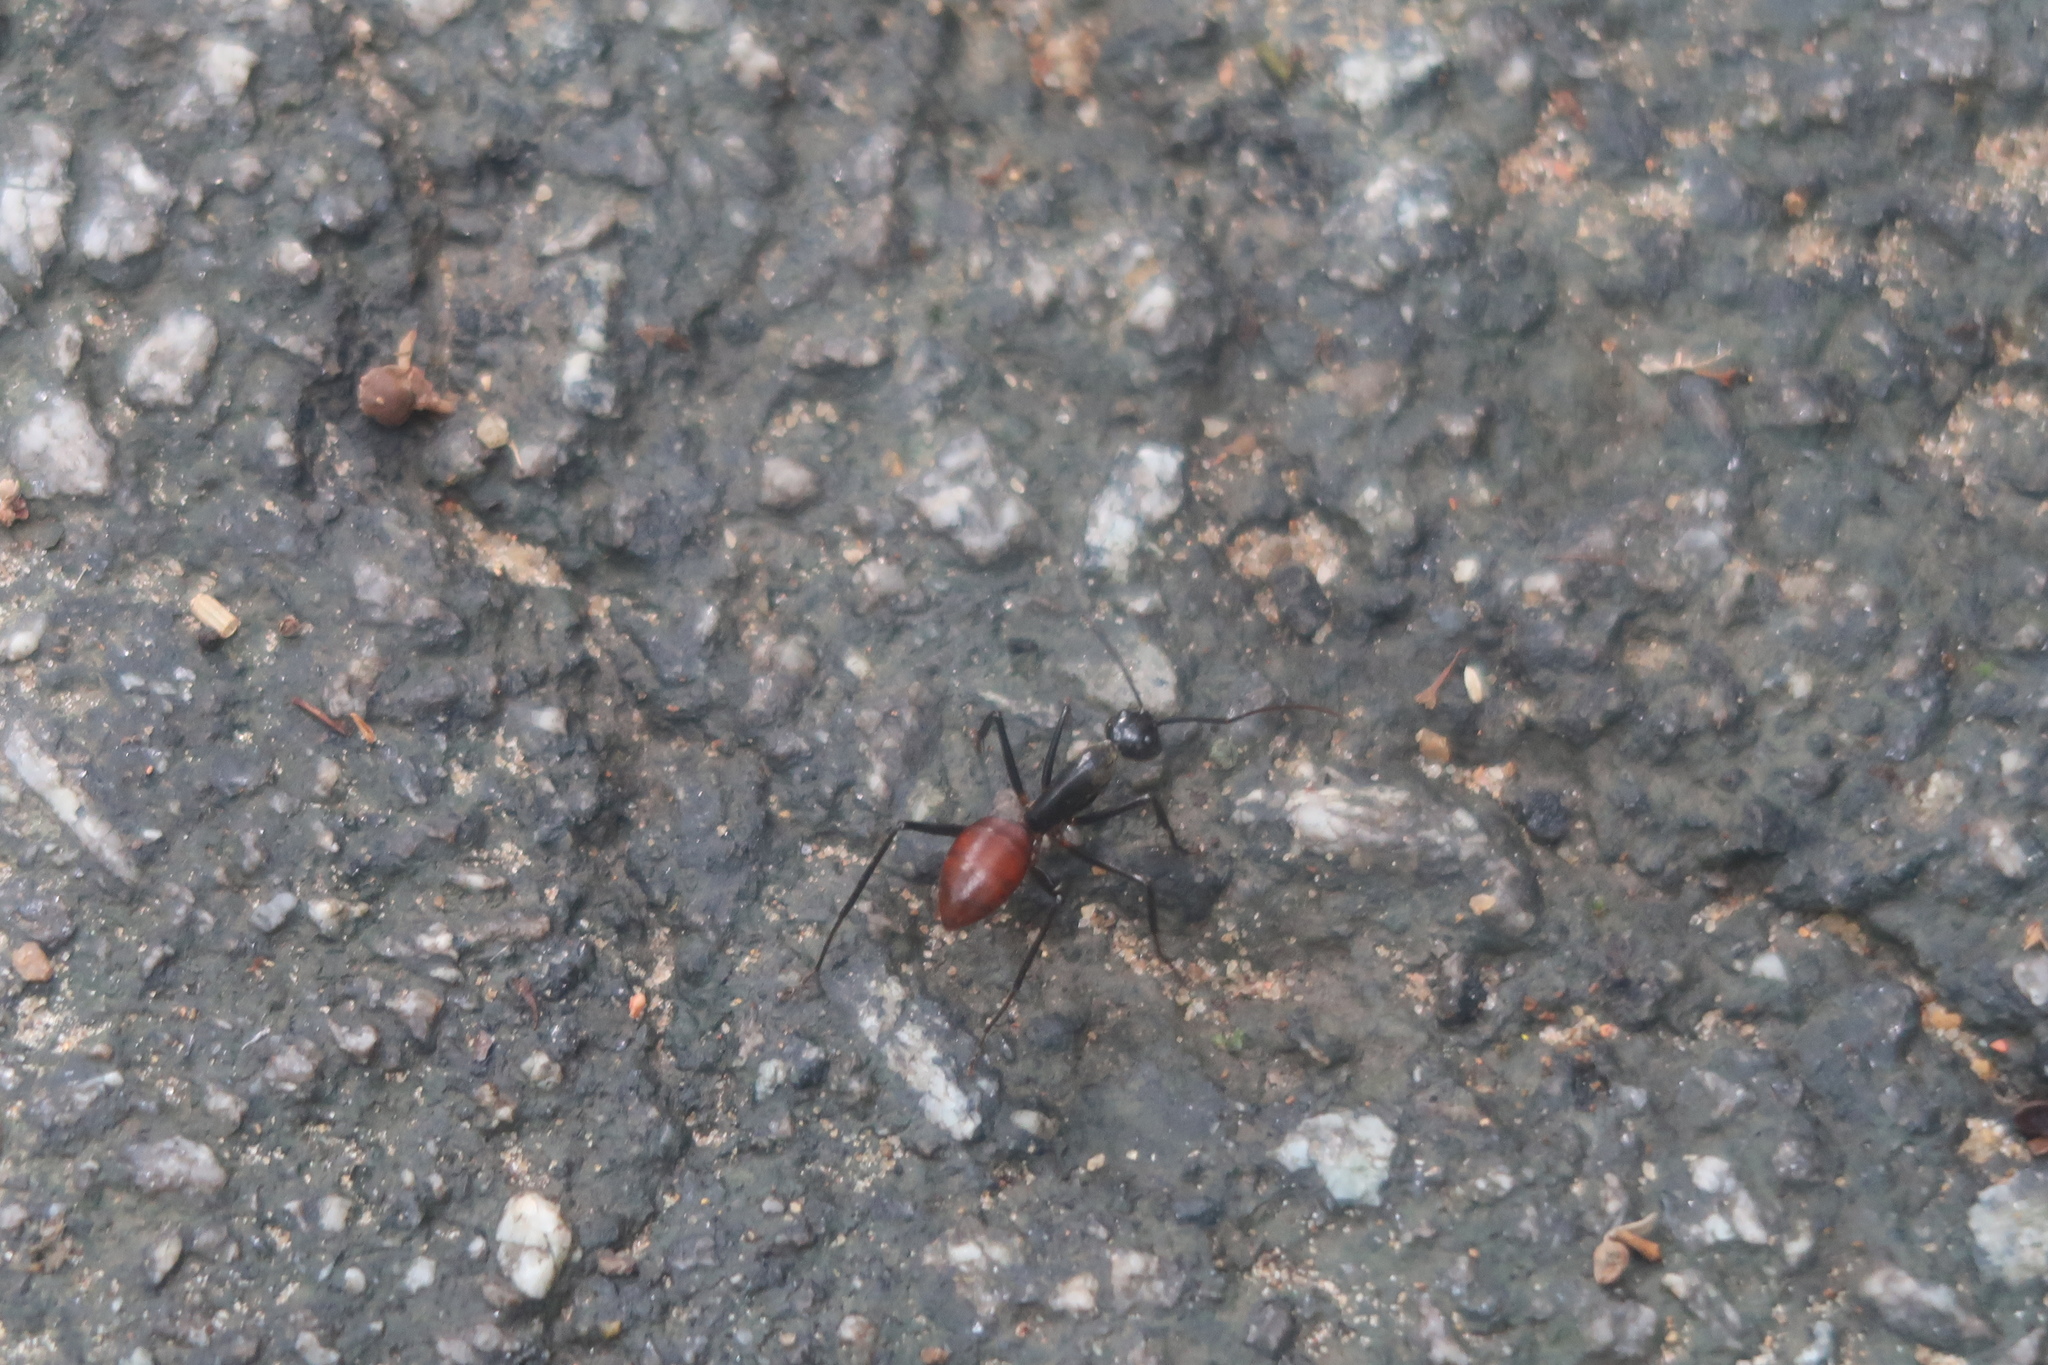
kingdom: Animalia
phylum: Arthropoda
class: Insecta
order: Hymenoptera
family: Formicidae
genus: Dinomyrmex
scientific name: Dinomyrmex
